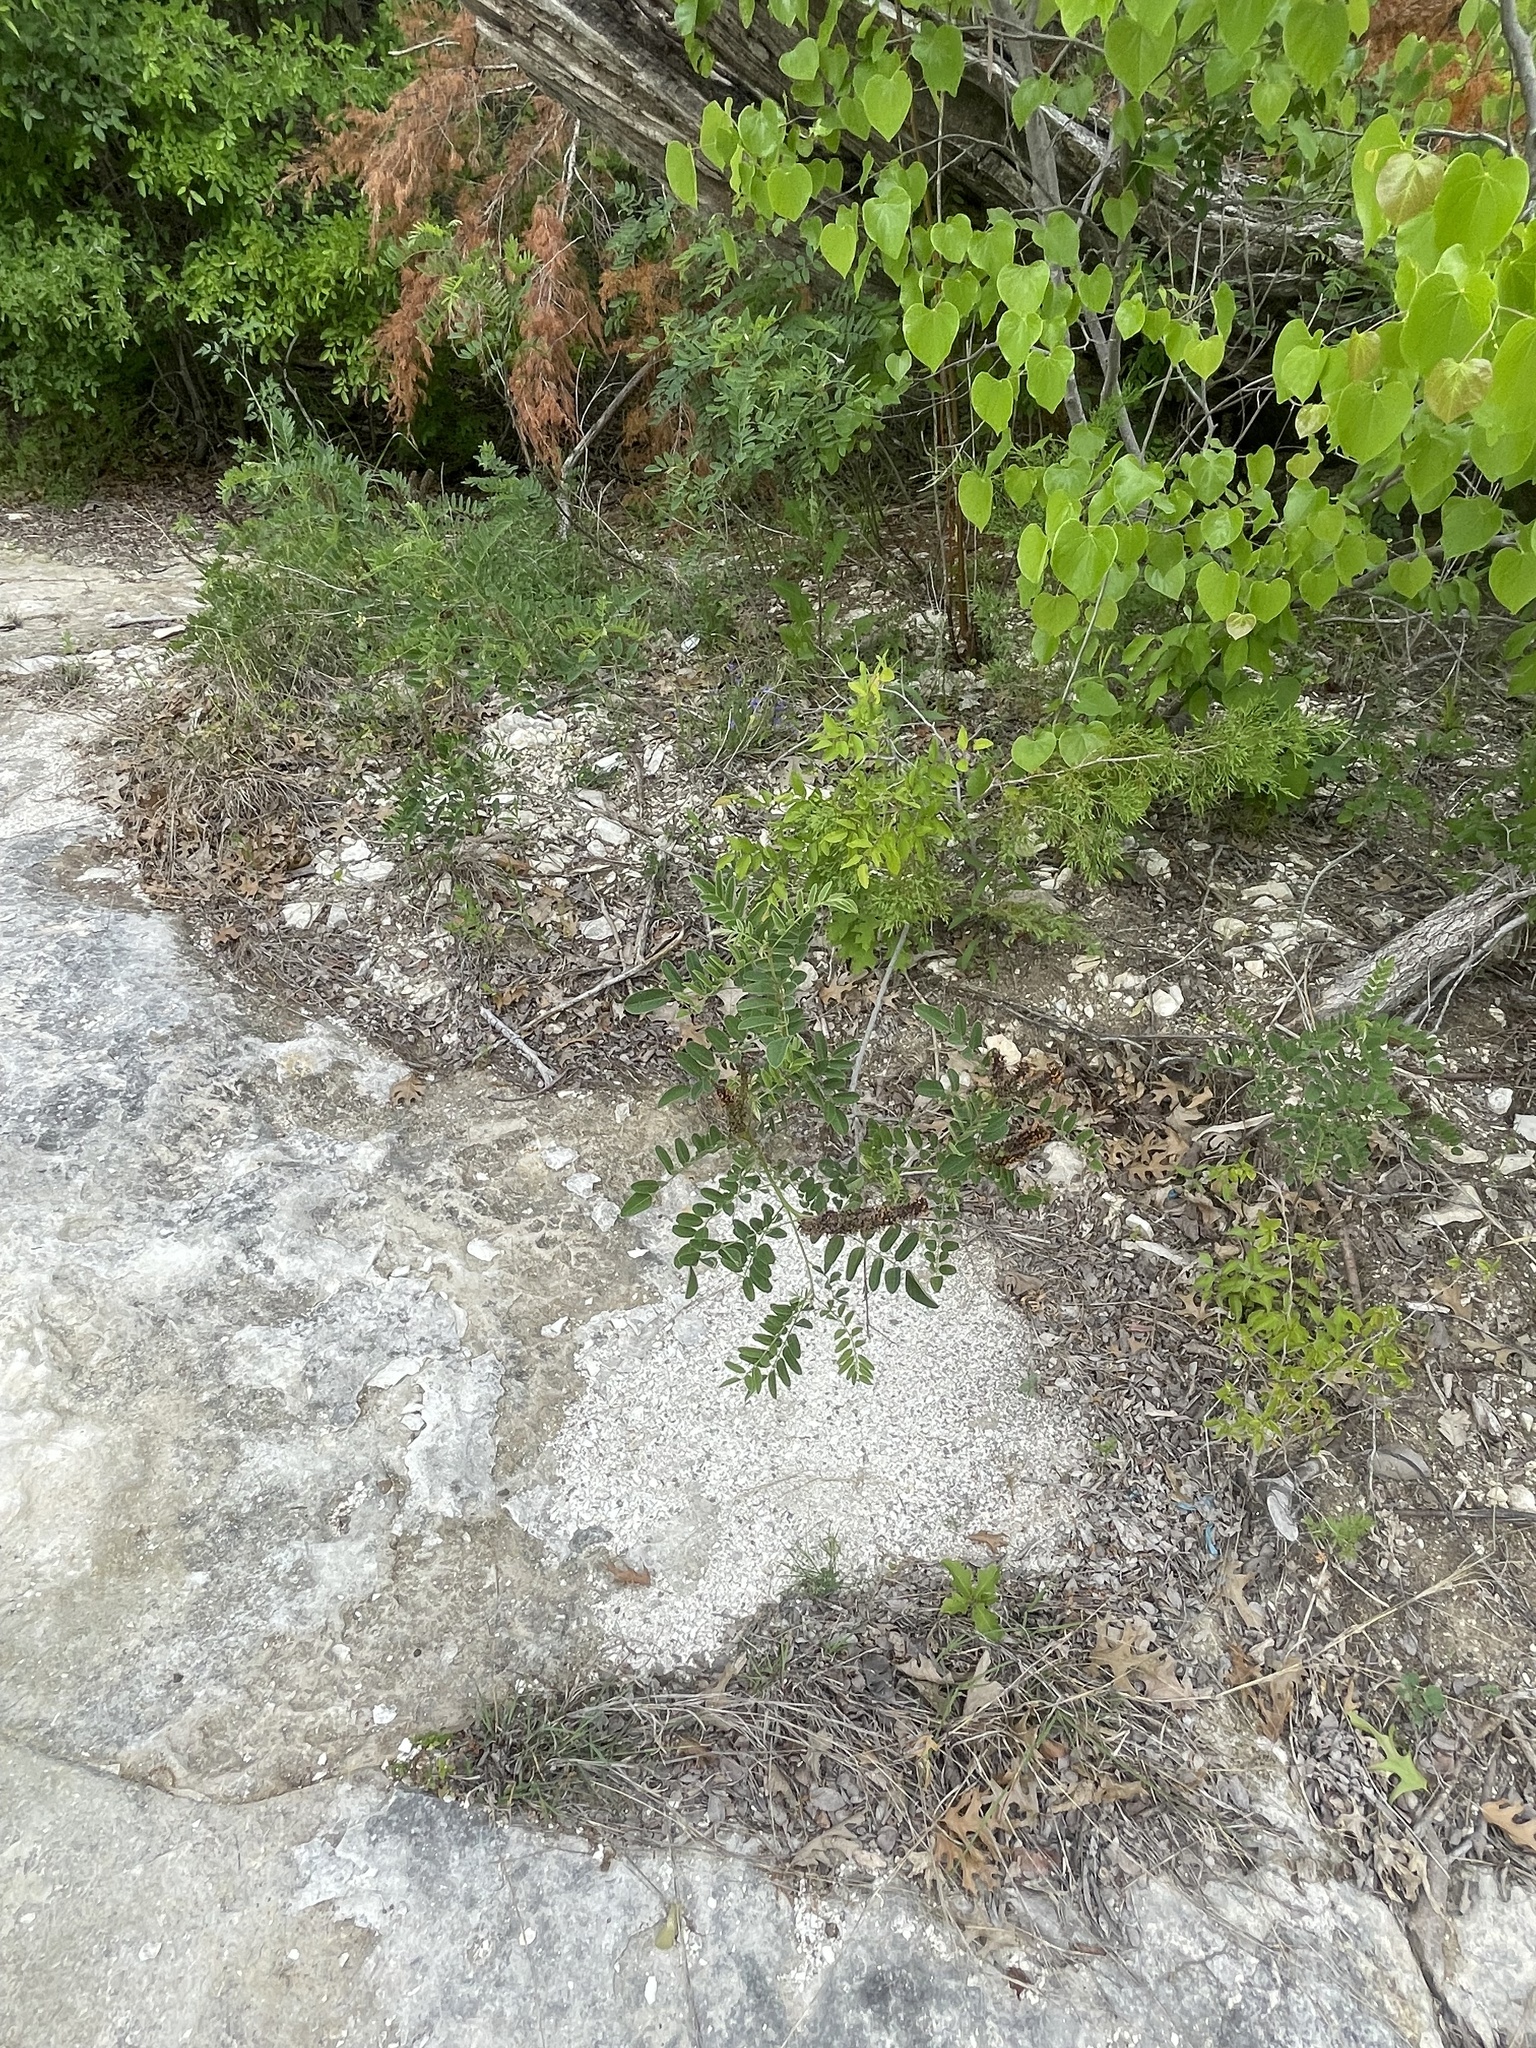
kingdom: Plantae
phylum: Tracheophyta
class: Magnoliopsida
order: Fabales
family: Fabaceae
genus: Amorpha
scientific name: Amorpha fruticosa
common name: False indigo
